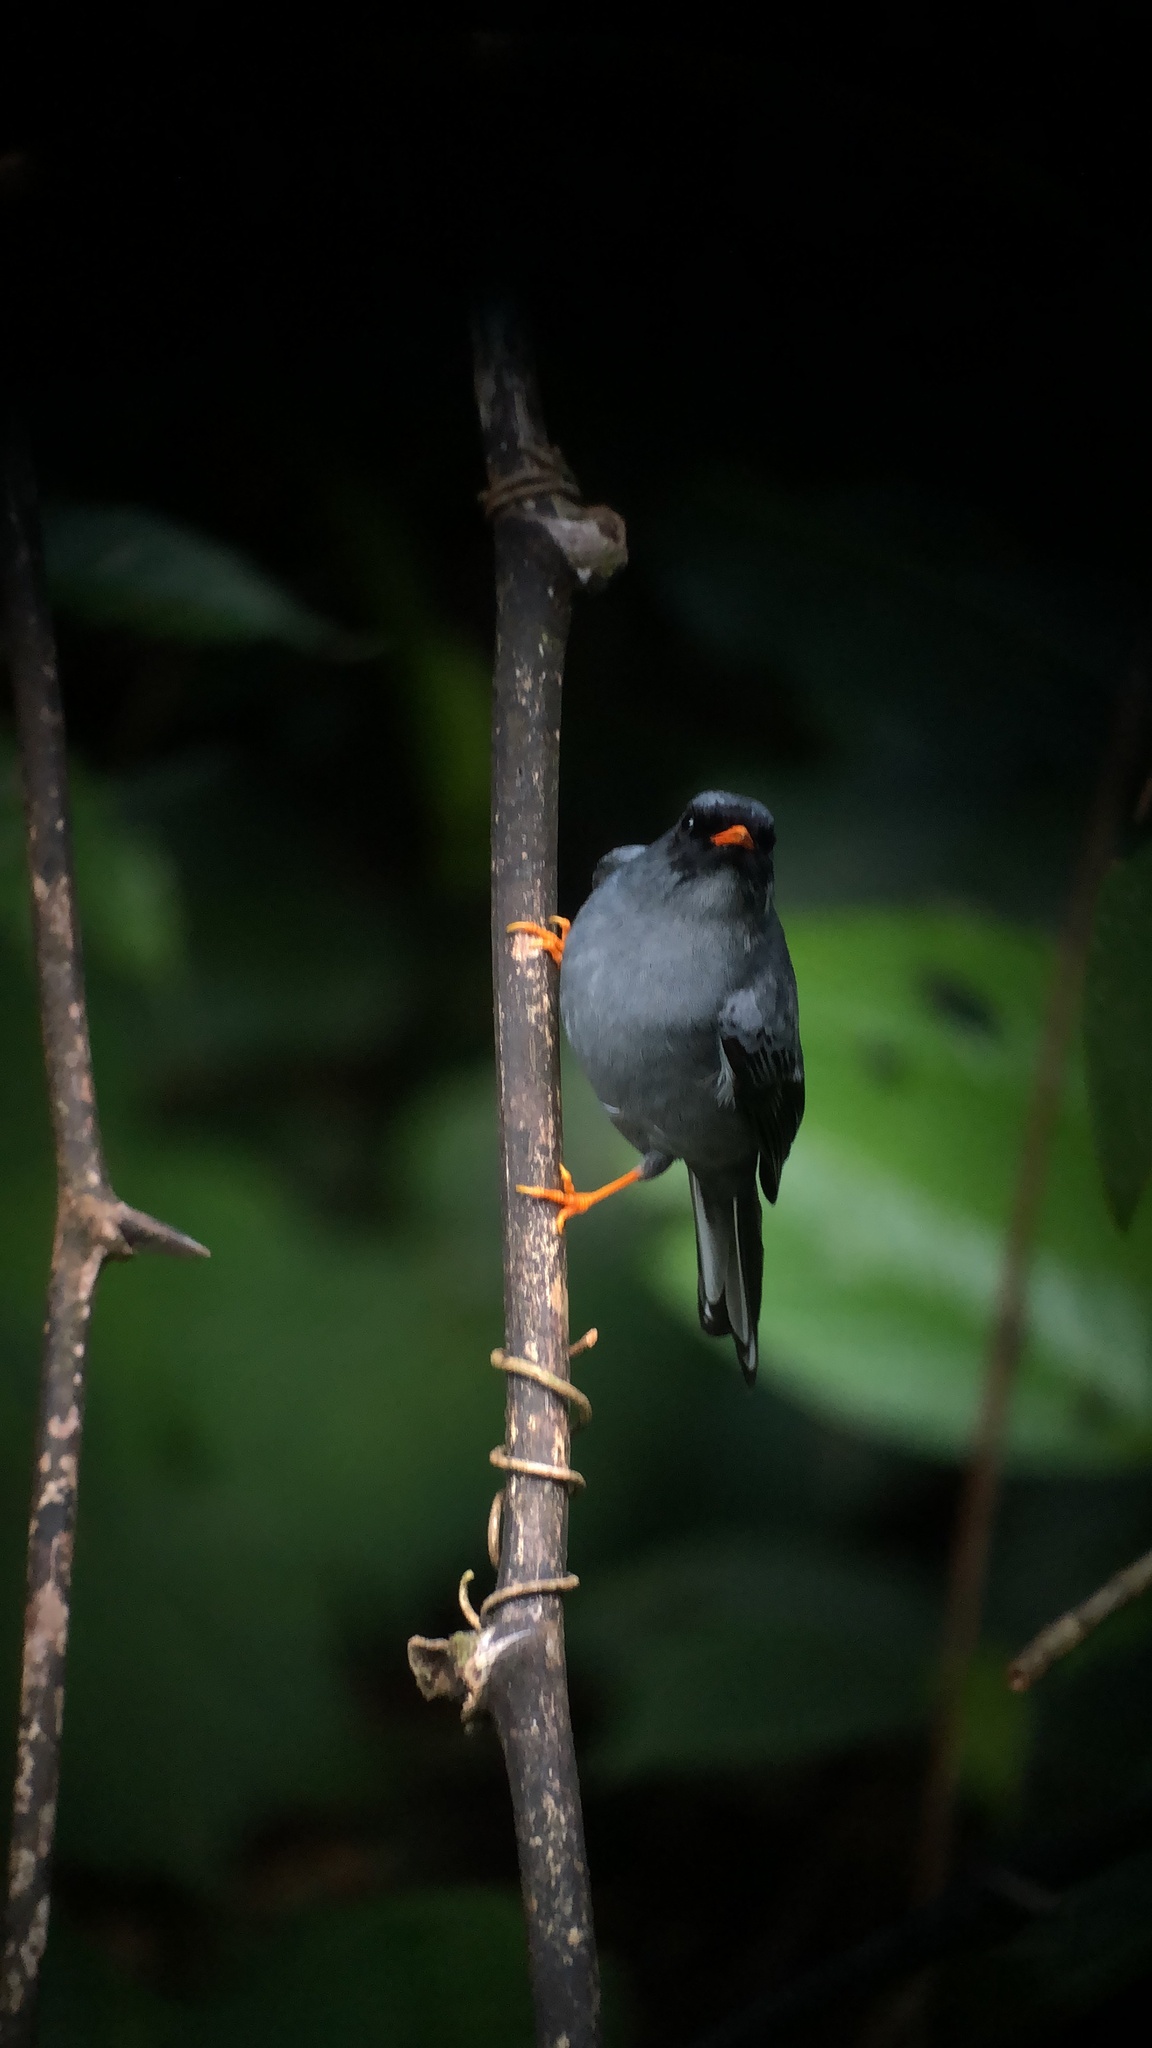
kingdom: Animalia
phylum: Chordata
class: Aves
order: Passeriformes
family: Turdidae
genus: Myadestes
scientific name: Myadestes melanops
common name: Black-faced solitaire
